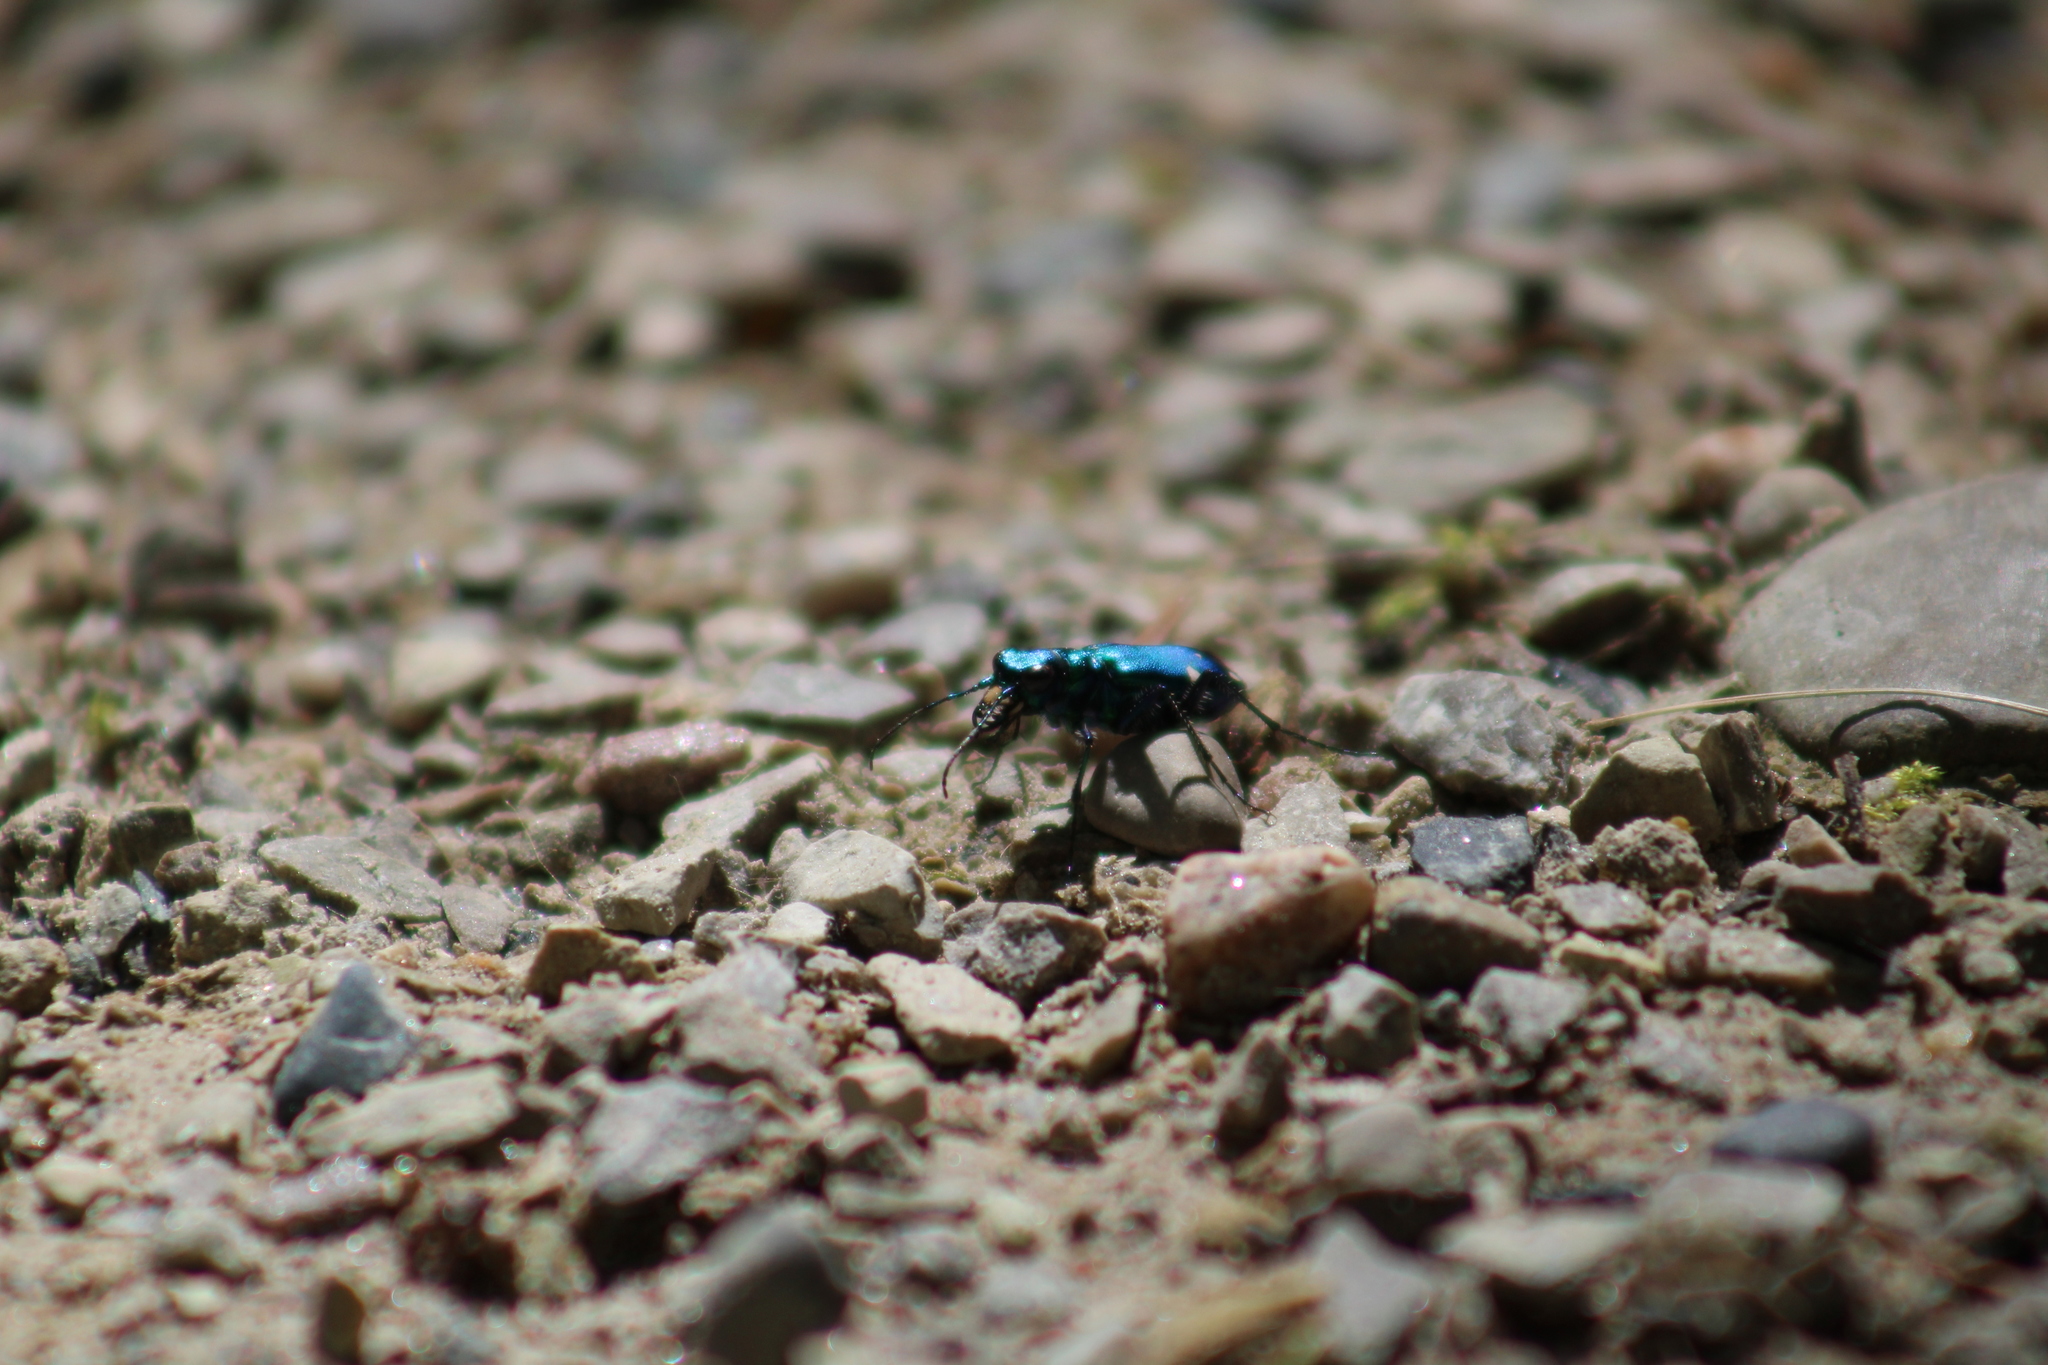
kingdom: Animalia
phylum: Arthropoda
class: Insecta
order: Coleoptera
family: Carabidae
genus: Cicindela
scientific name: Cicindela sexguttata
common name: Six-spotted tiger beetle
